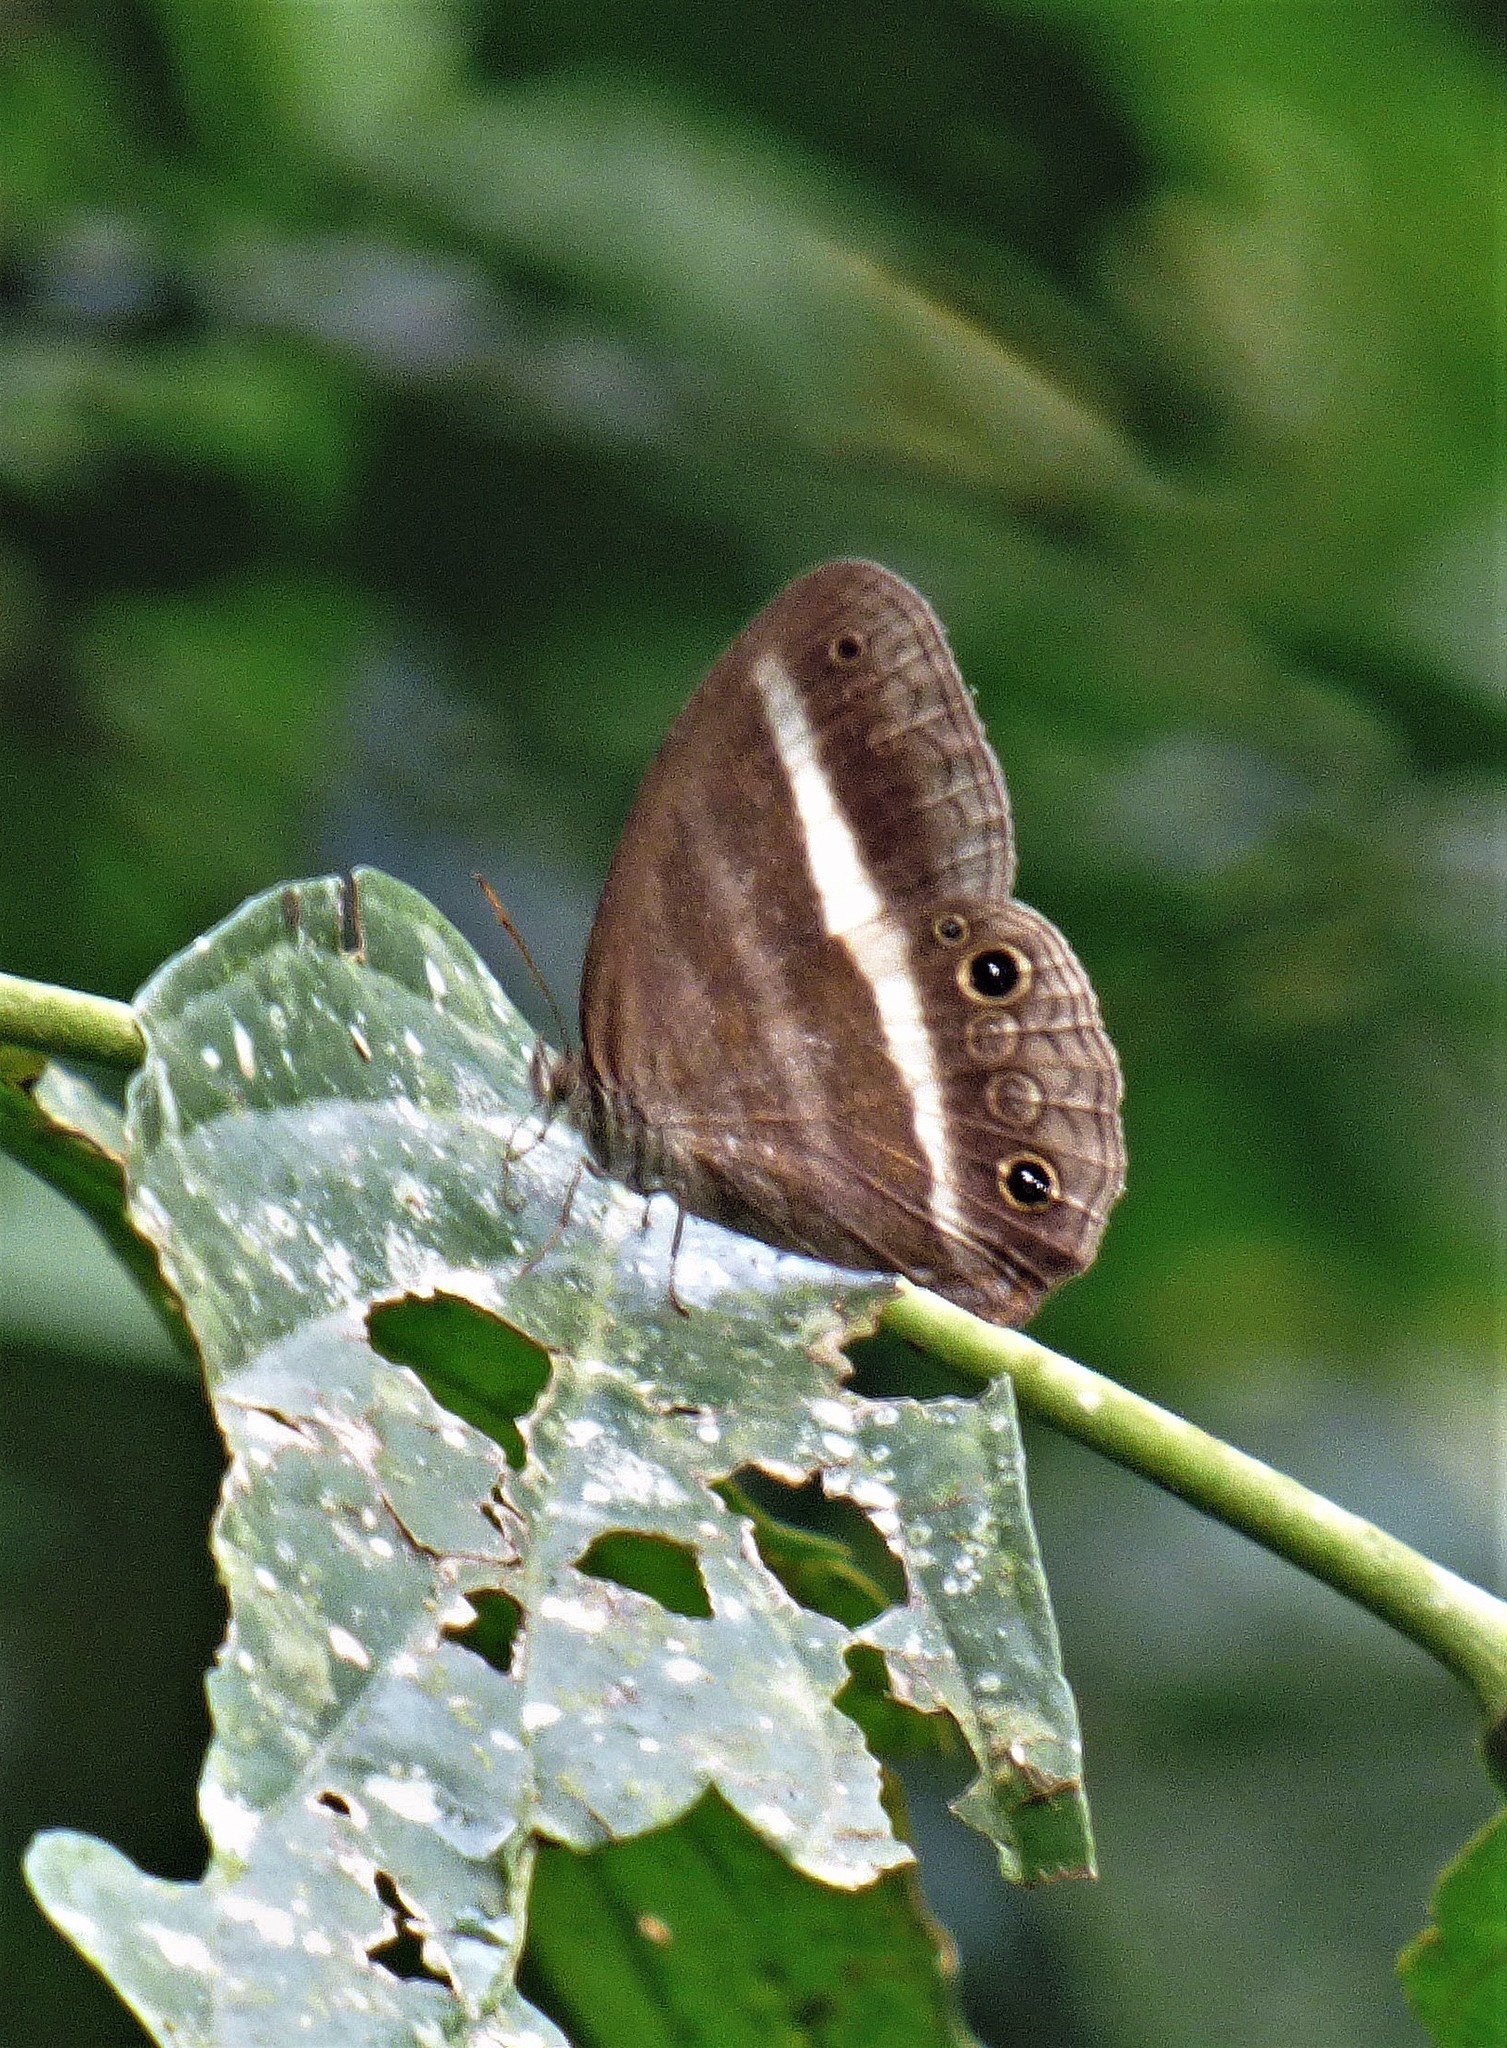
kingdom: Animalia
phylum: Arthropoda
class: Insecta
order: Lepidoptera
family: Nymphalidae
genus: Pareuptychia
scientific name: Pareuptychia summandosa
